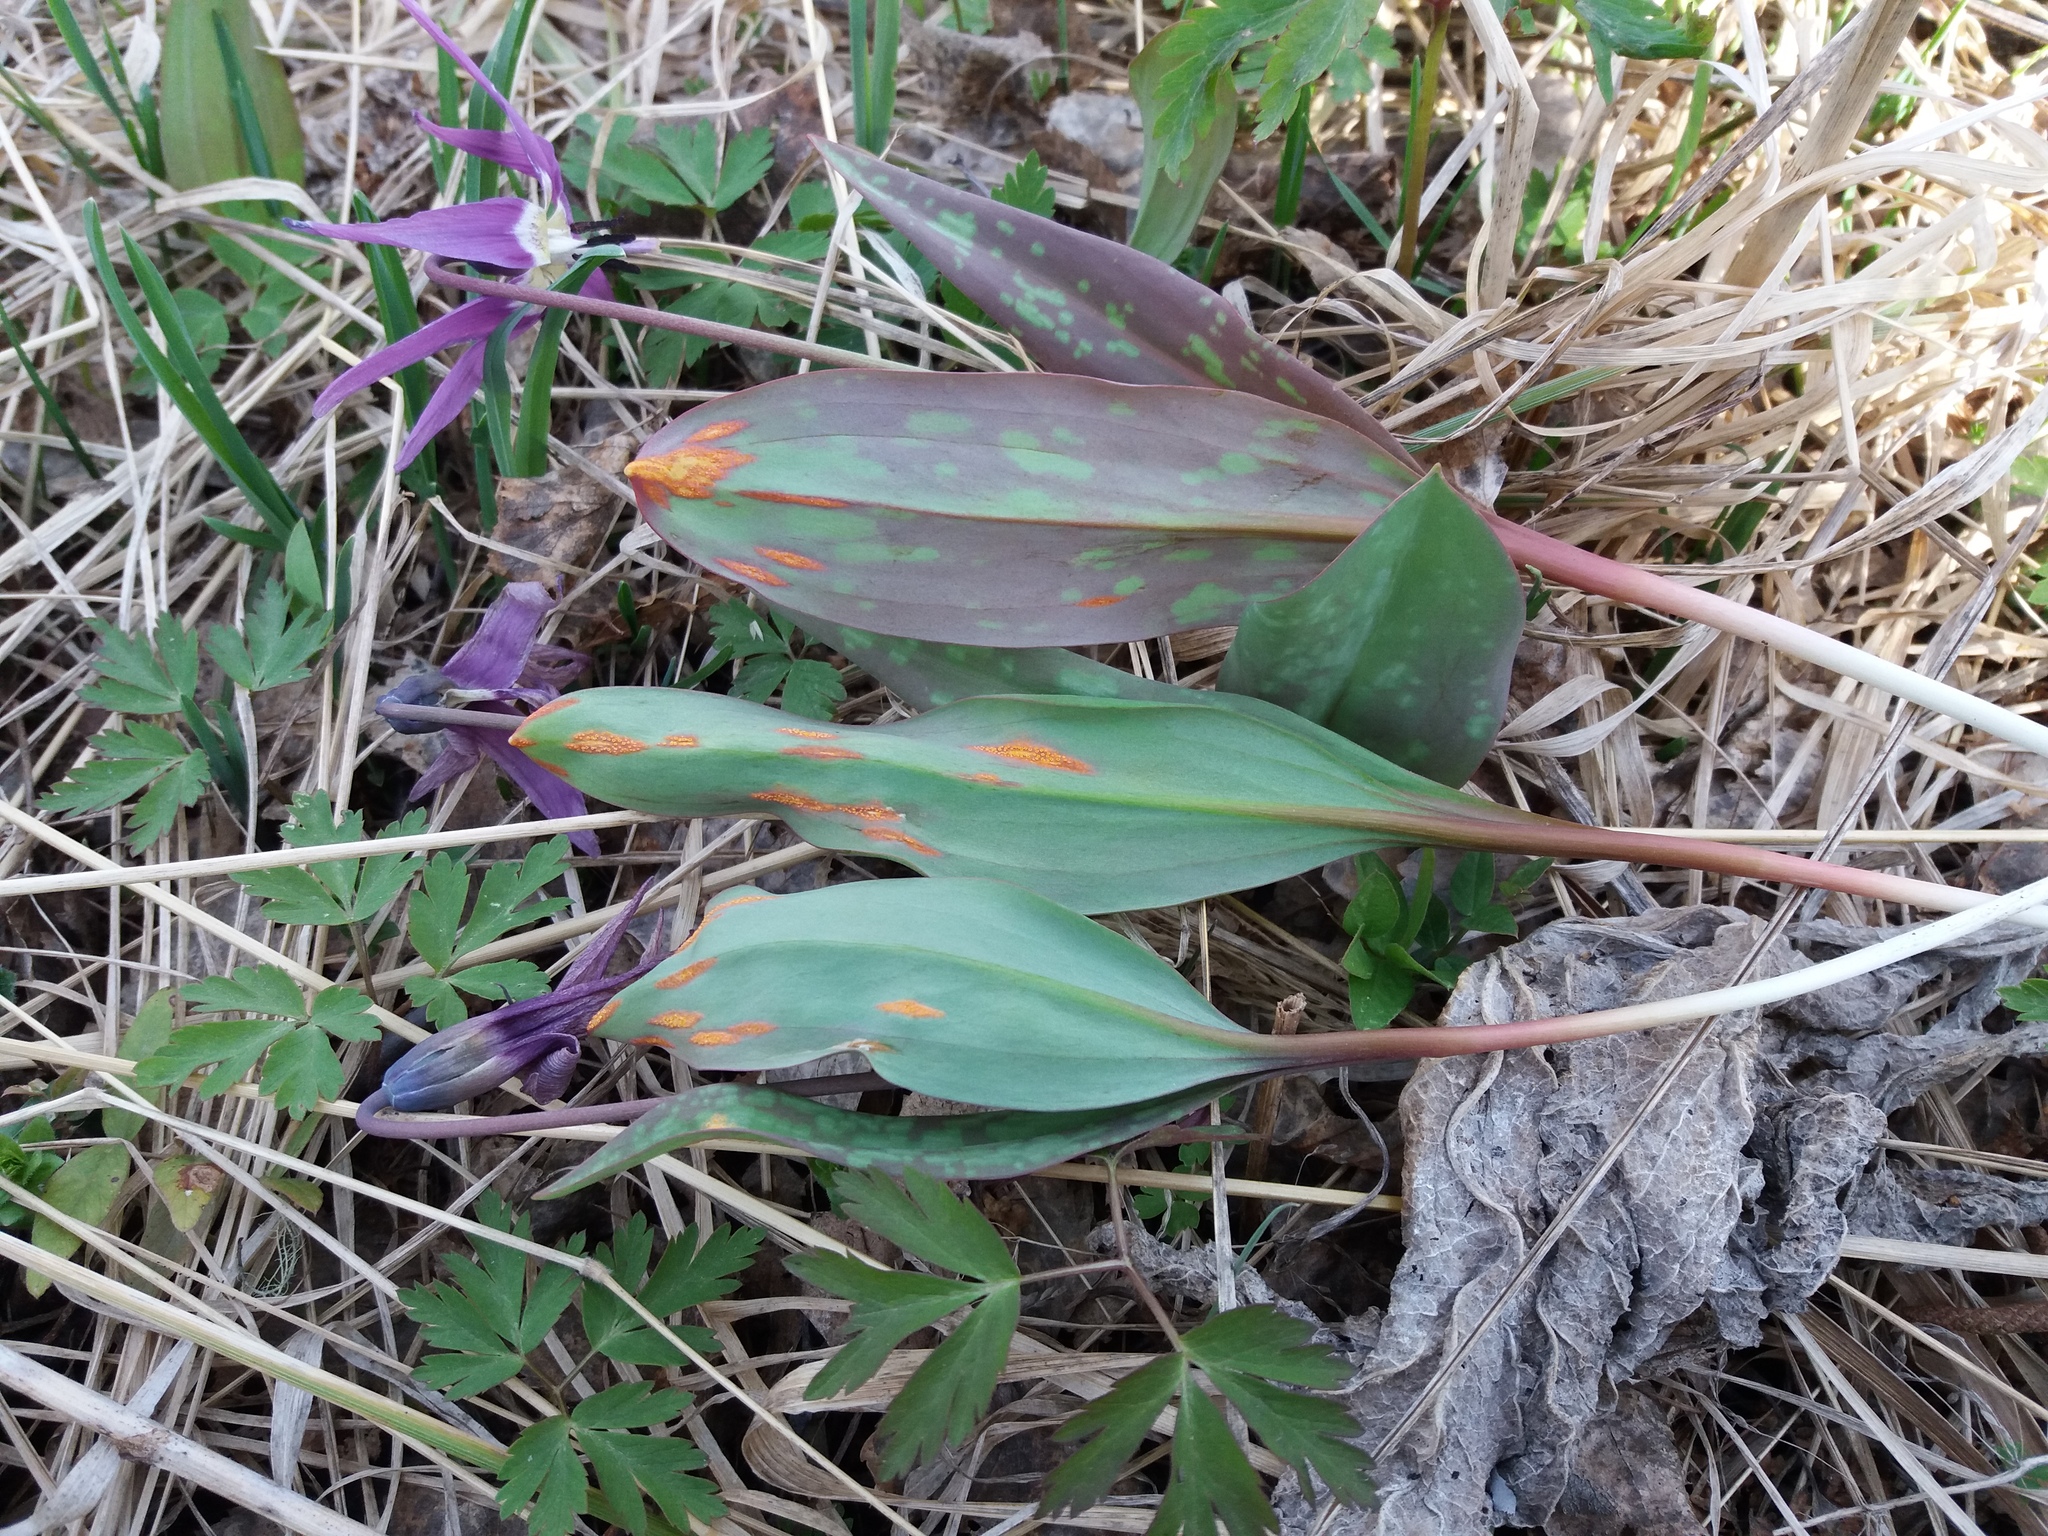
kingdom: Fungi
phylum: Basidiomycota
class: Pucciniomycetes
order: Pucciniales
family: Pucciniaceae
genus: Uromyces
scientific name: Uromyces erythronii
